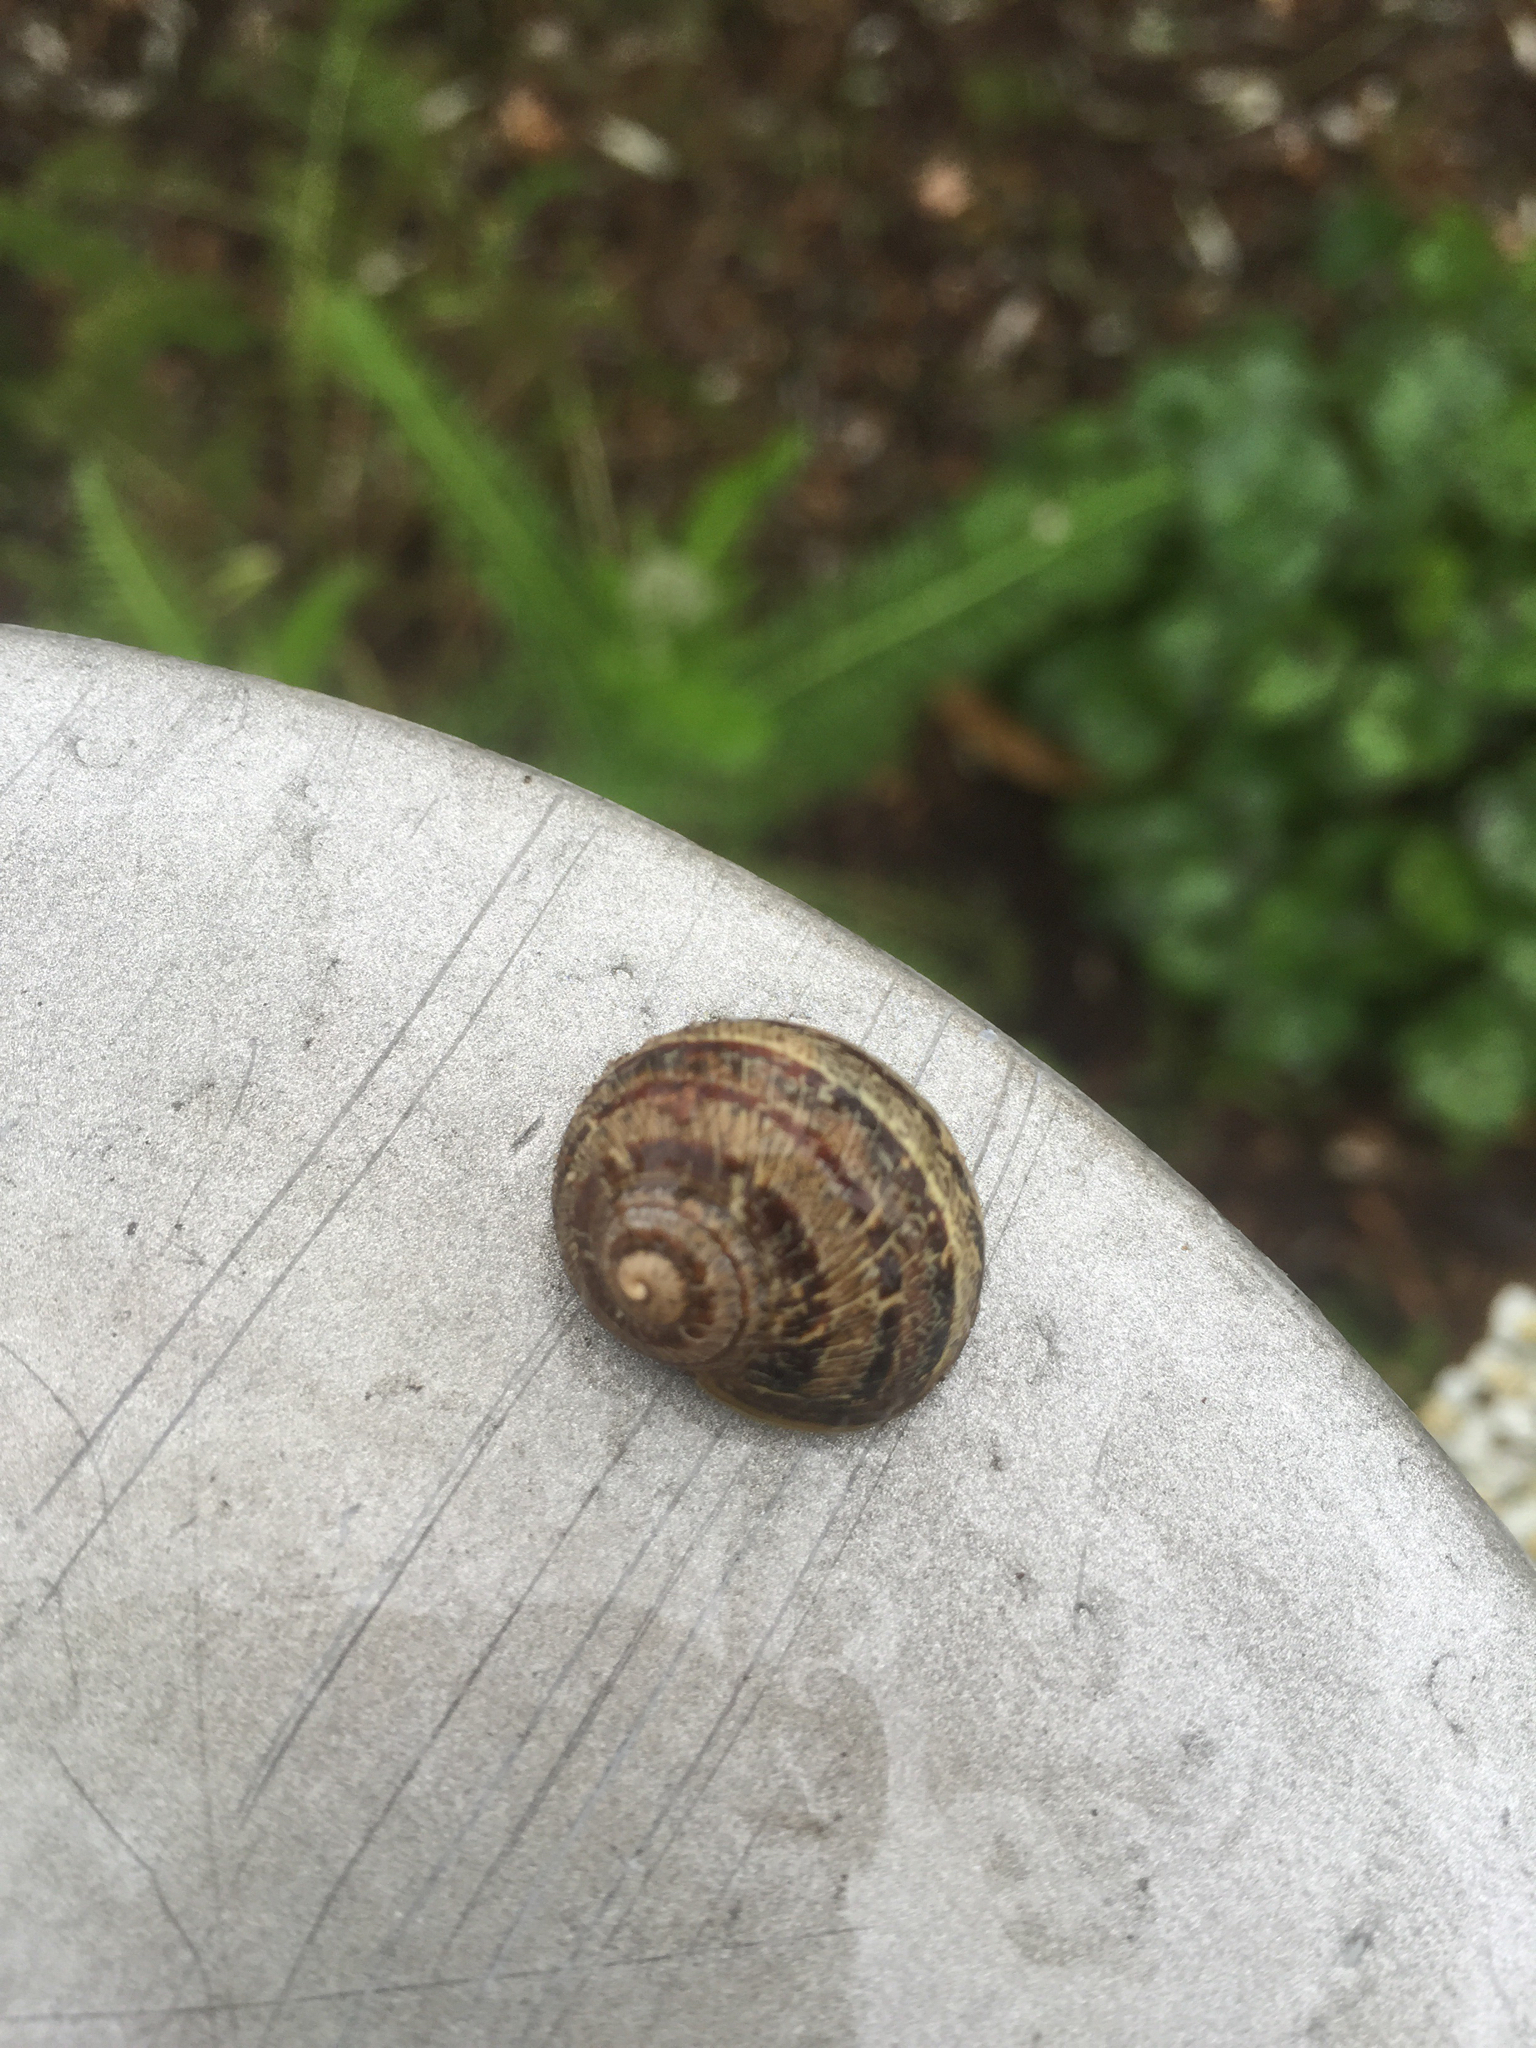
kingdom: Animalia
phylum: Mollusca
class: Gastropoda
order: Stylommatophora
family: Helicidae
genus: Cornu
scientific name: Cornu aspersum
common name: Brown garden snail
